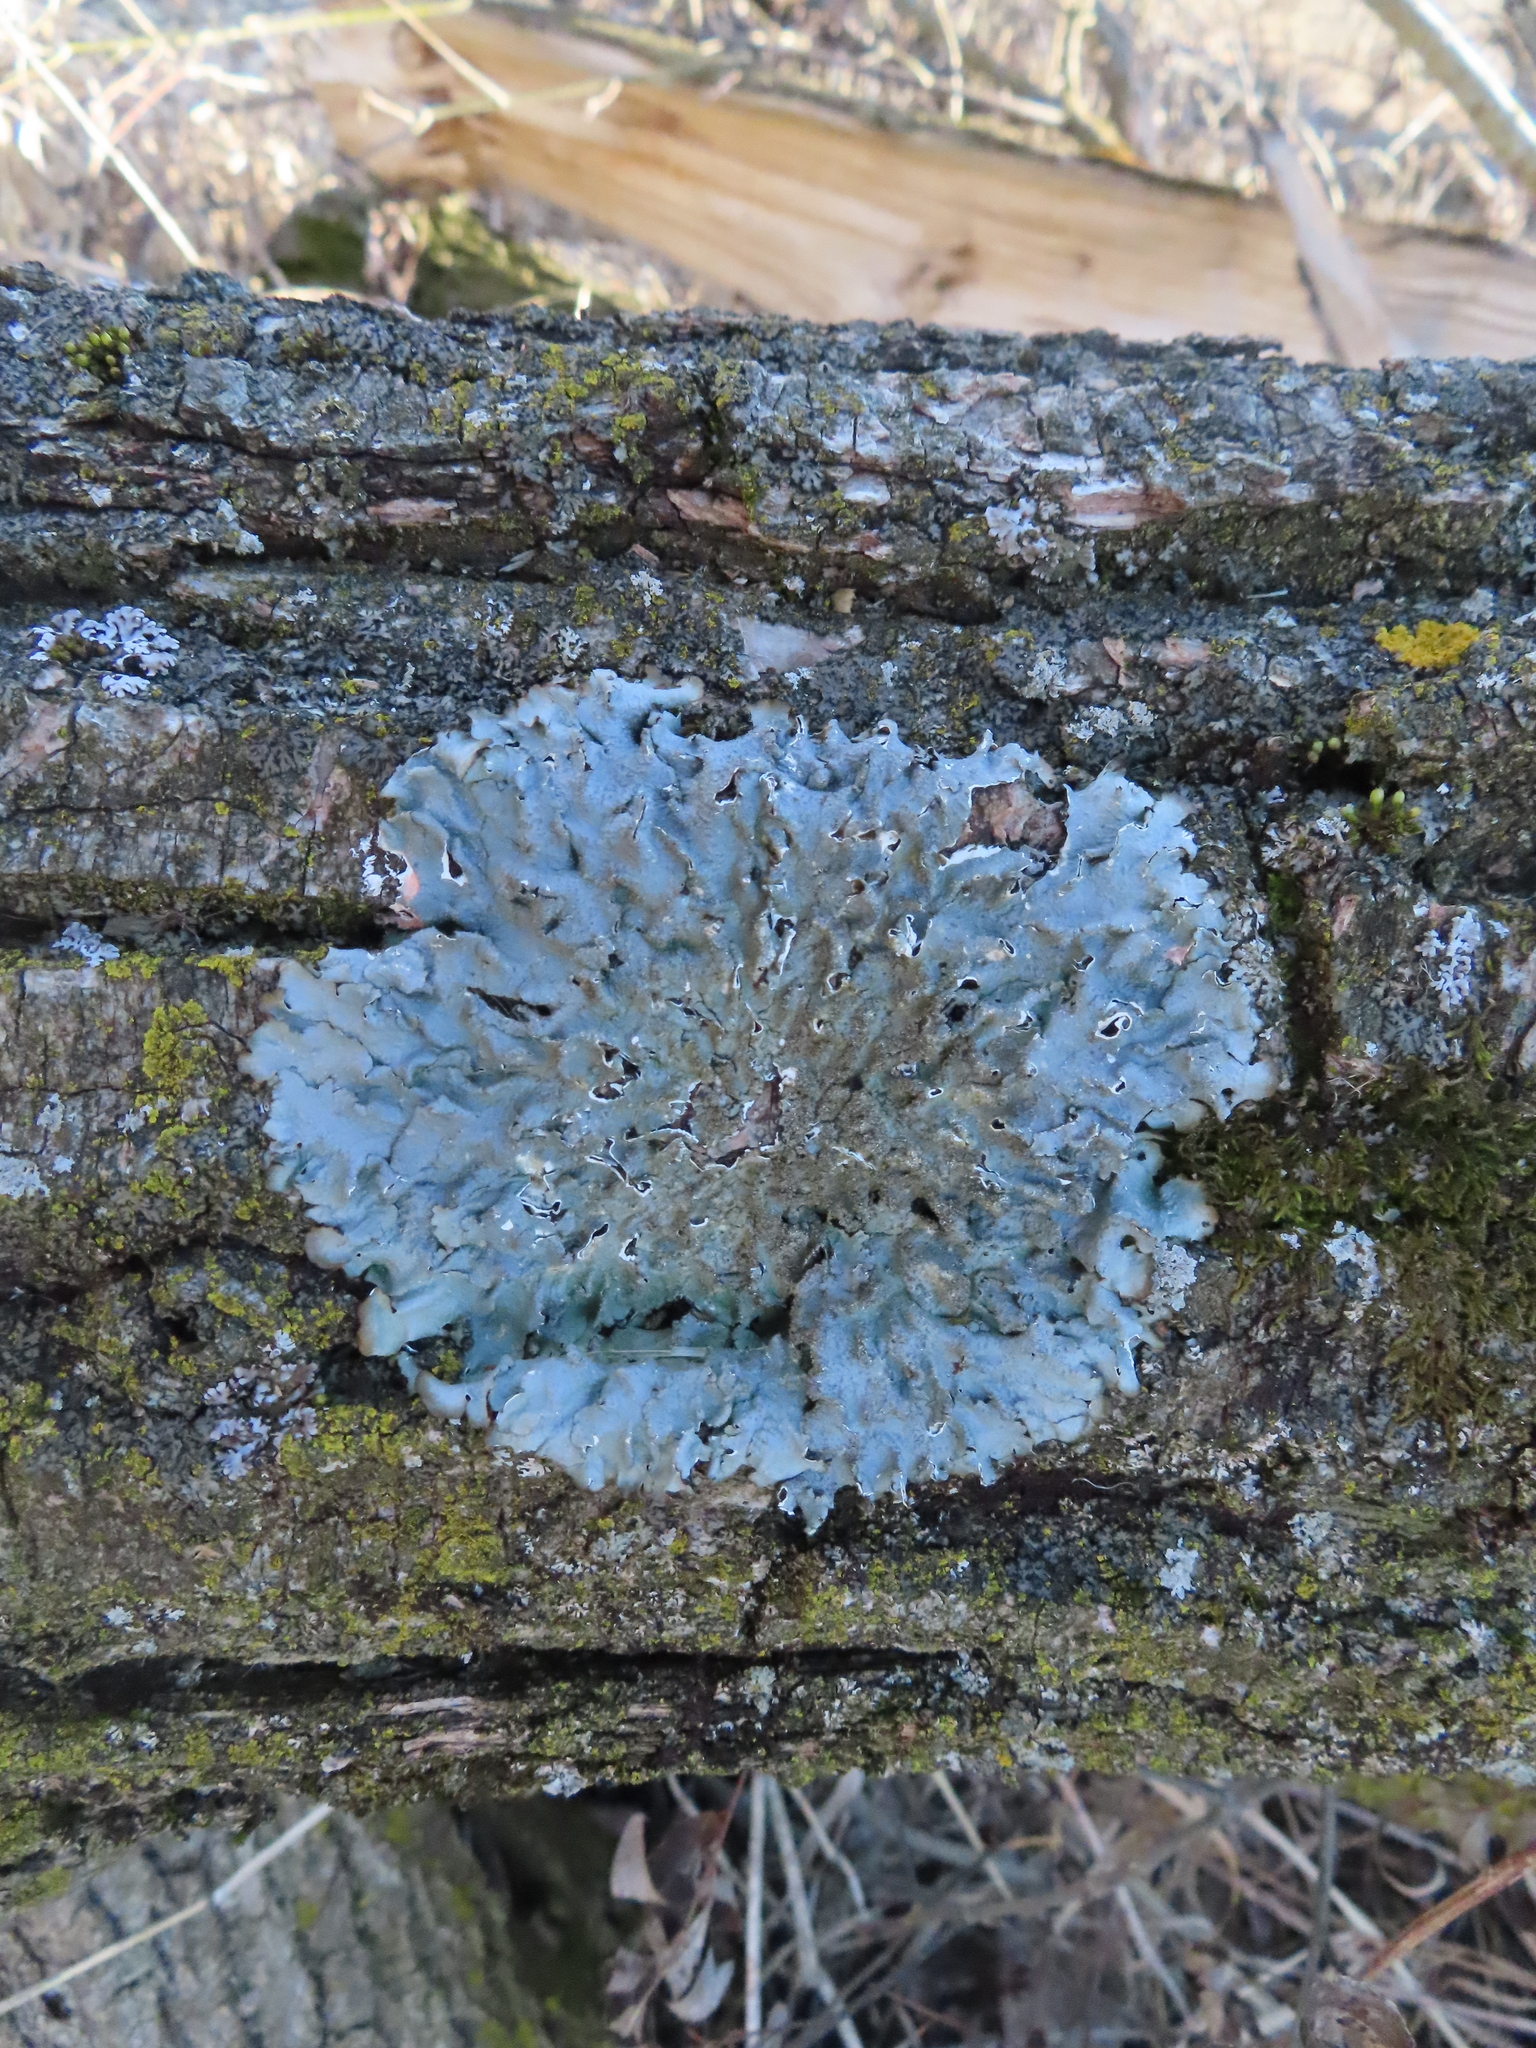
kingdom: Fungi
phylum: Ascomycota
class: Lecanoromycetes
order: Lecanorales
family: Parmeliaceae
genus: Punctelia
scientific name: Punctelia rudecta
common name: Rough speckled shield lichen
